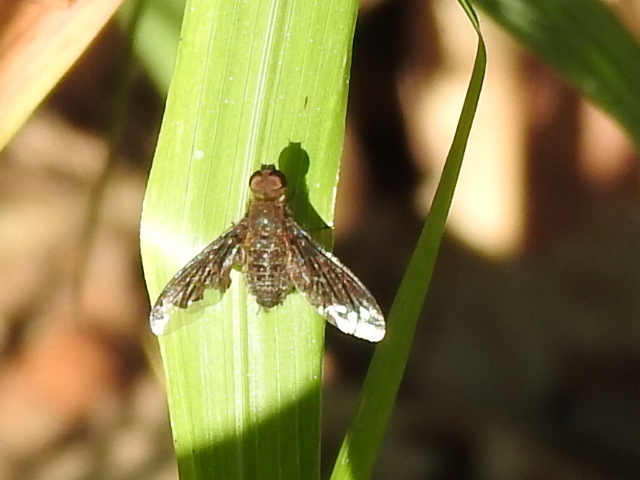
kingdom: Animalia
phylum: Arthropoda
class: Insecta
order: Diptera
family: Bombyliidae
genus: Hemipenthes
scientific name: Hemipenthes sinuosus
